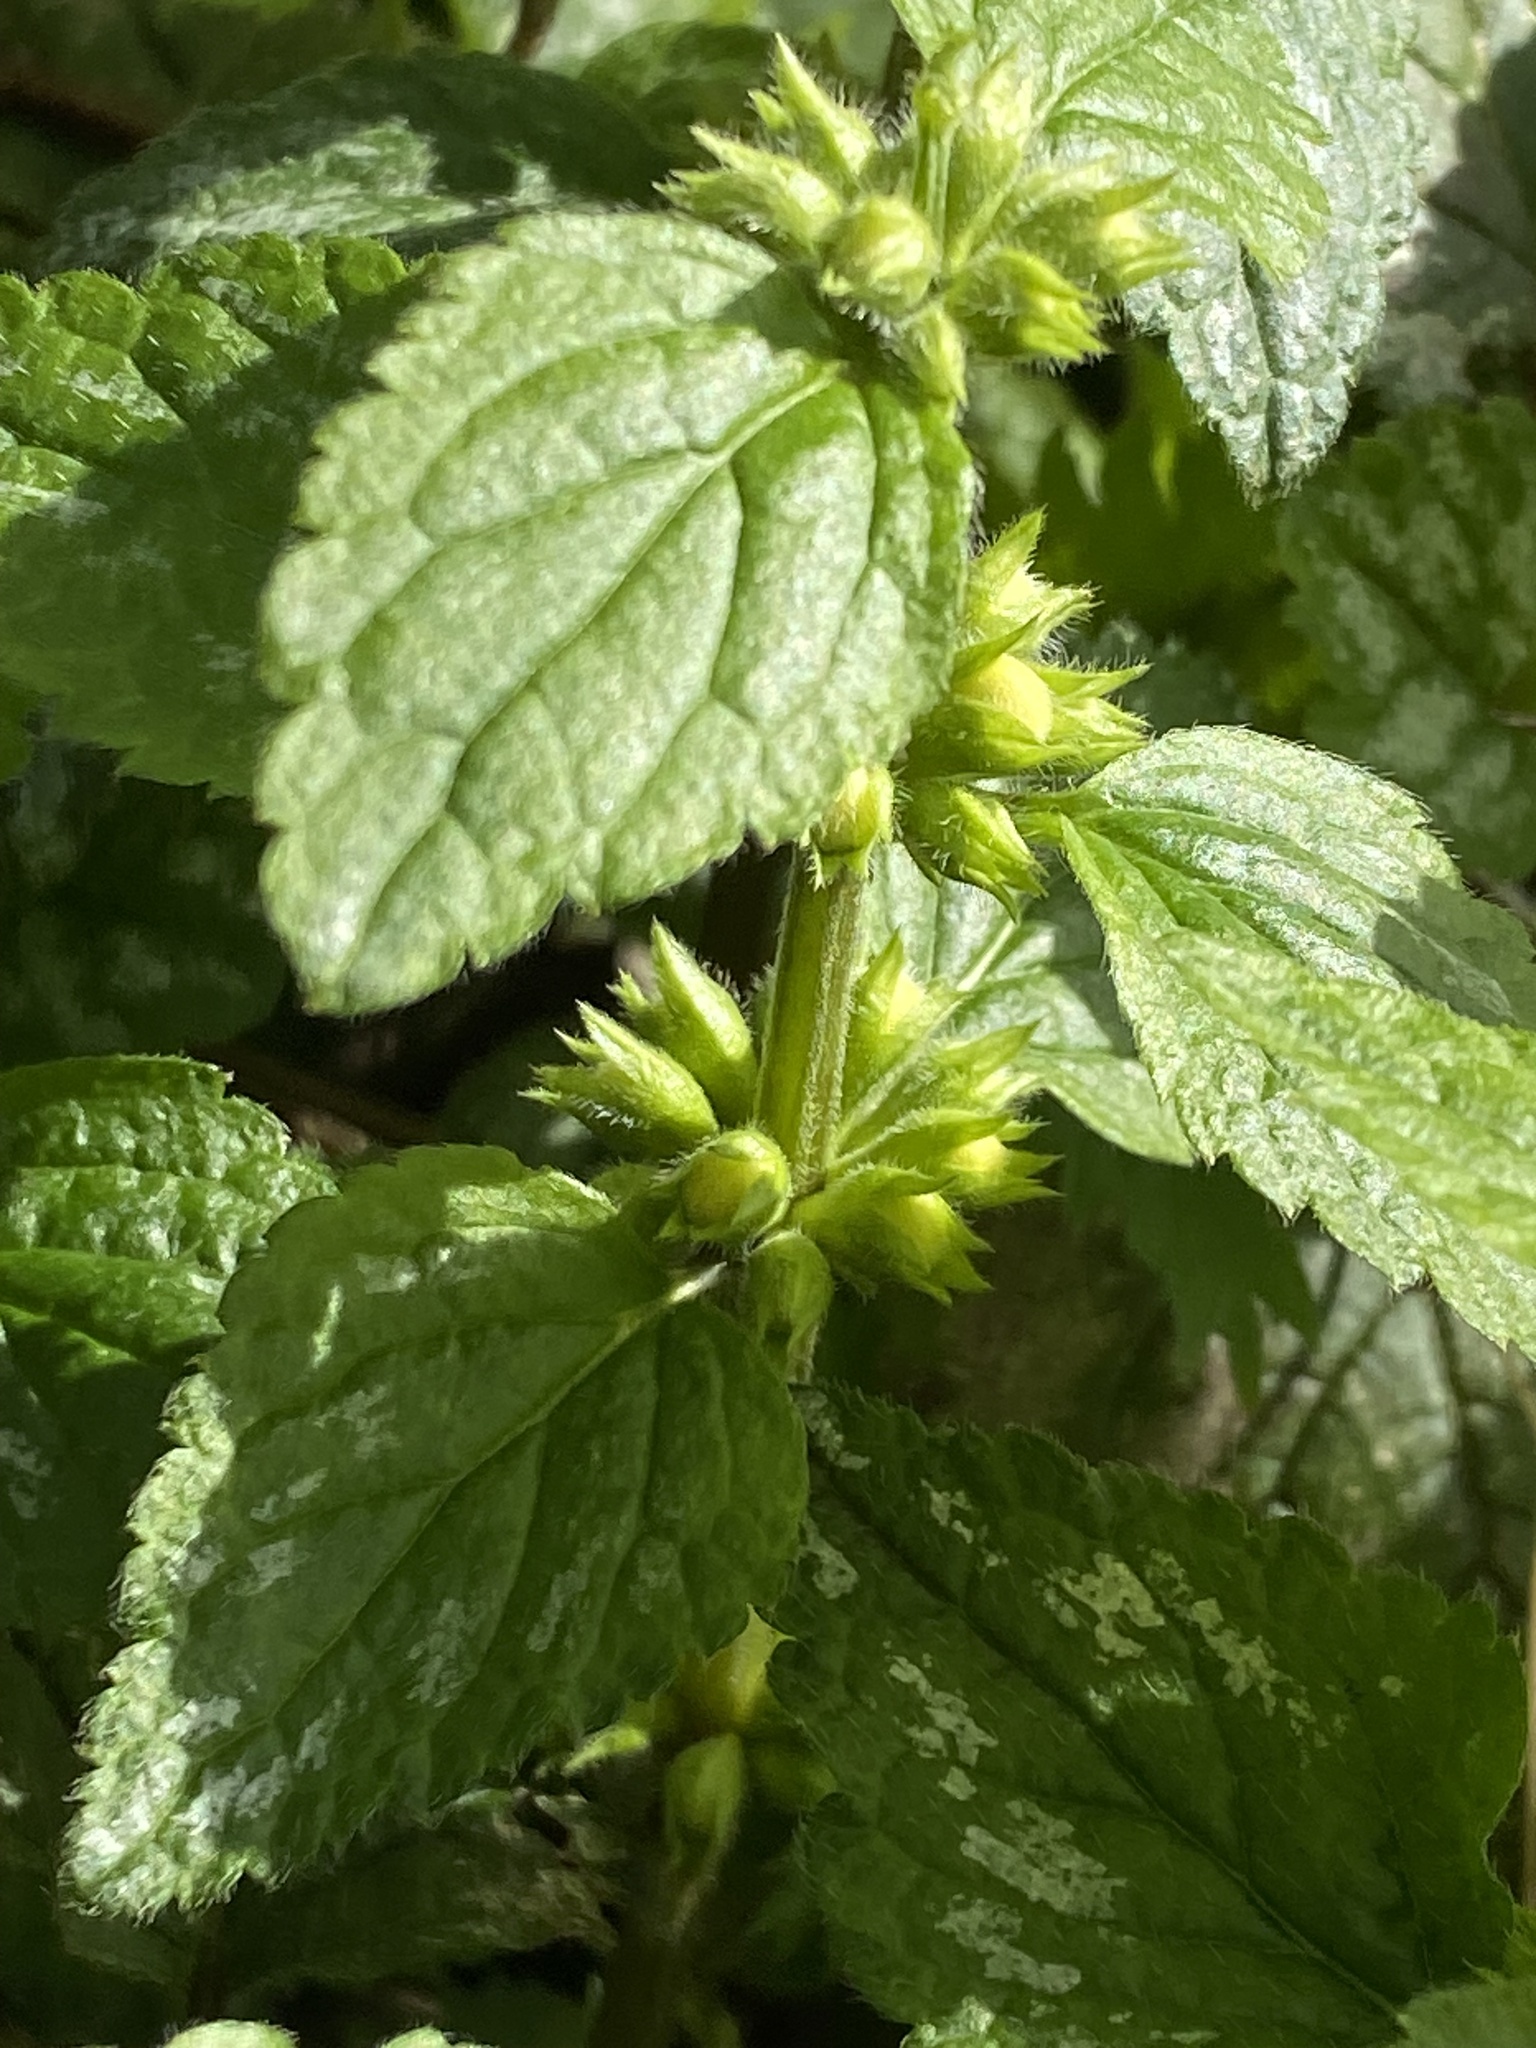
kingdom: Plantae
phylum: Tracheophyta
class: Magnoliopsida
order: Lamiales
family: Lamiaceae
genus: Lamium
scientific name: Lamium galeobdolon
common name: Yellow archangel
